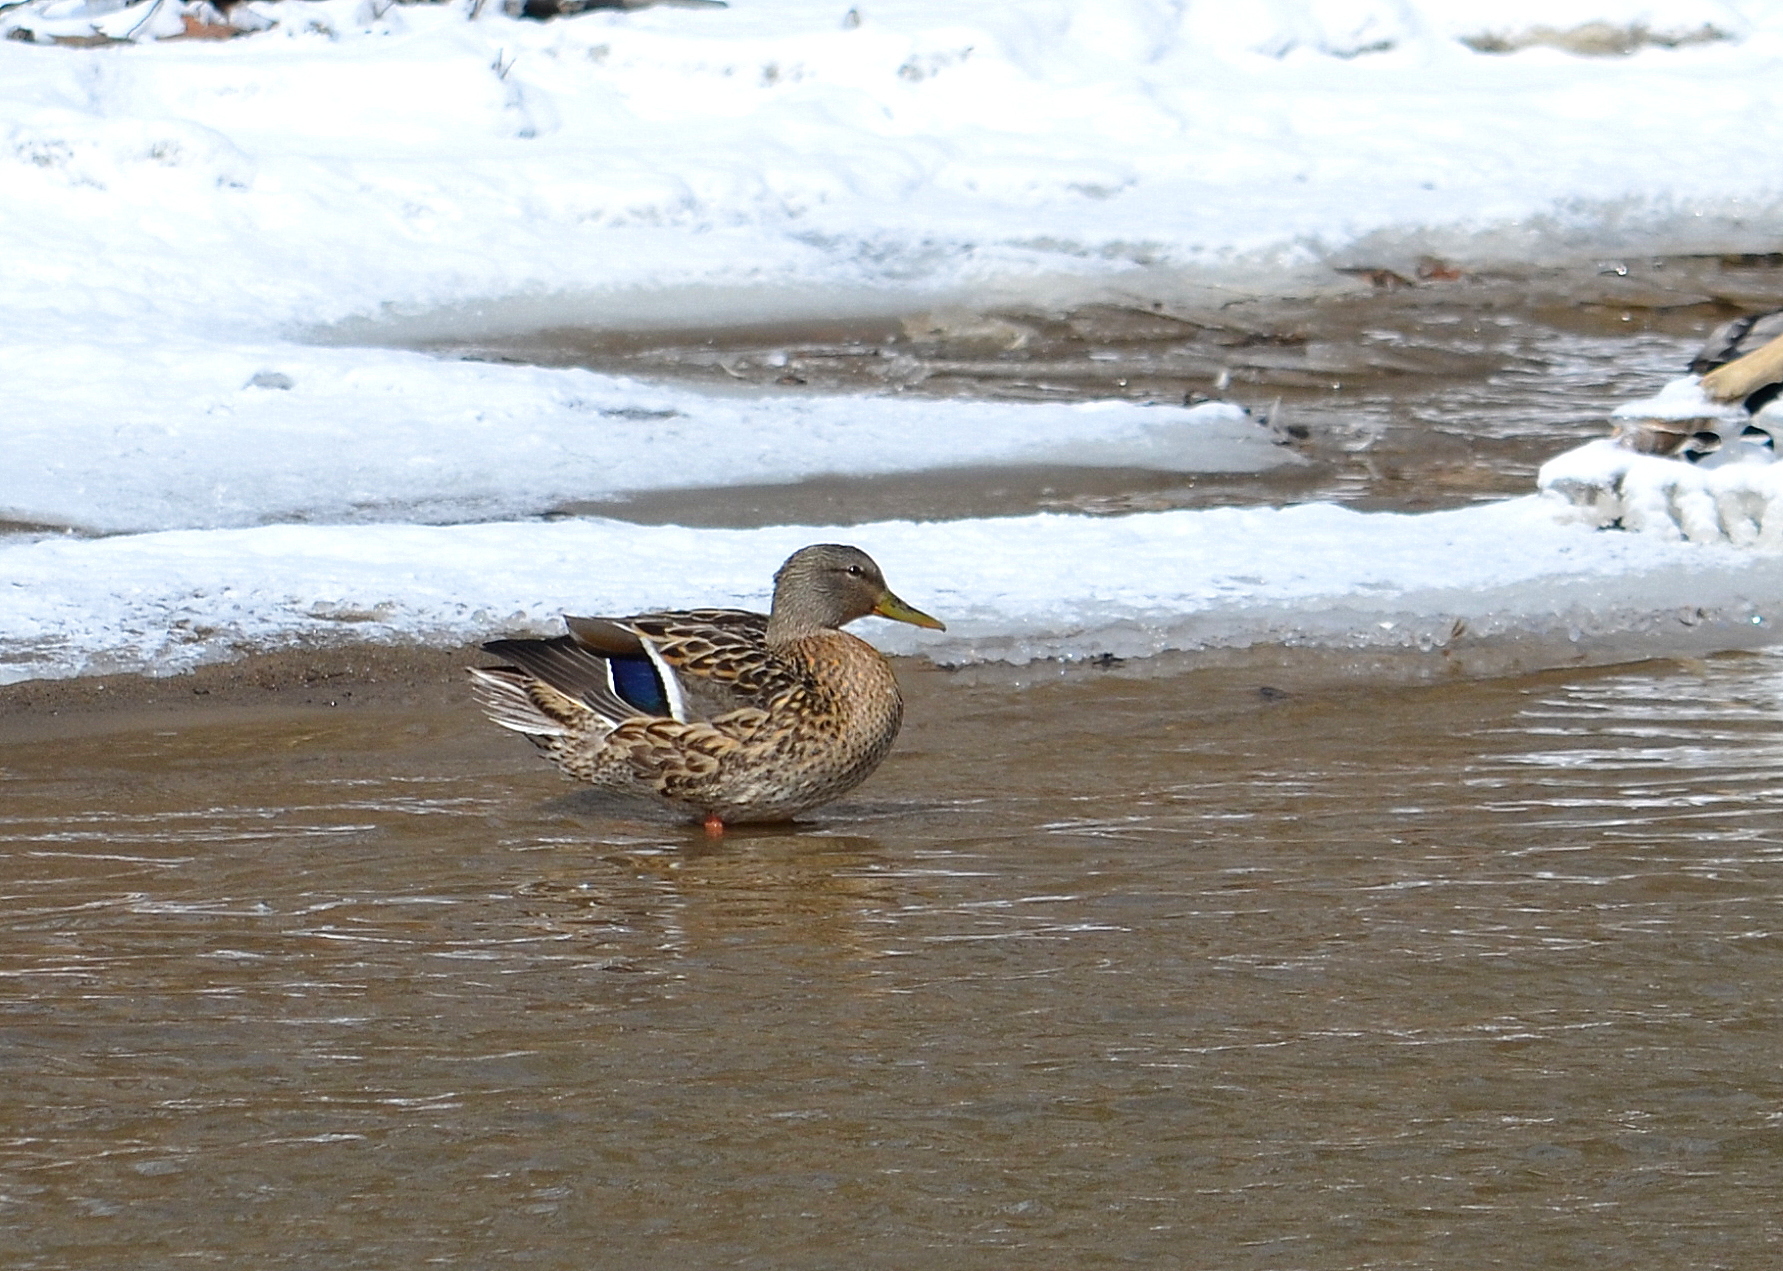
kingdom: Animalia
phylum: Chordata
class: Aves
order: Anseriformes
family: Anatidae
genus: Anas
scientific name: Anas platyrhynchos
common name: Mallard
